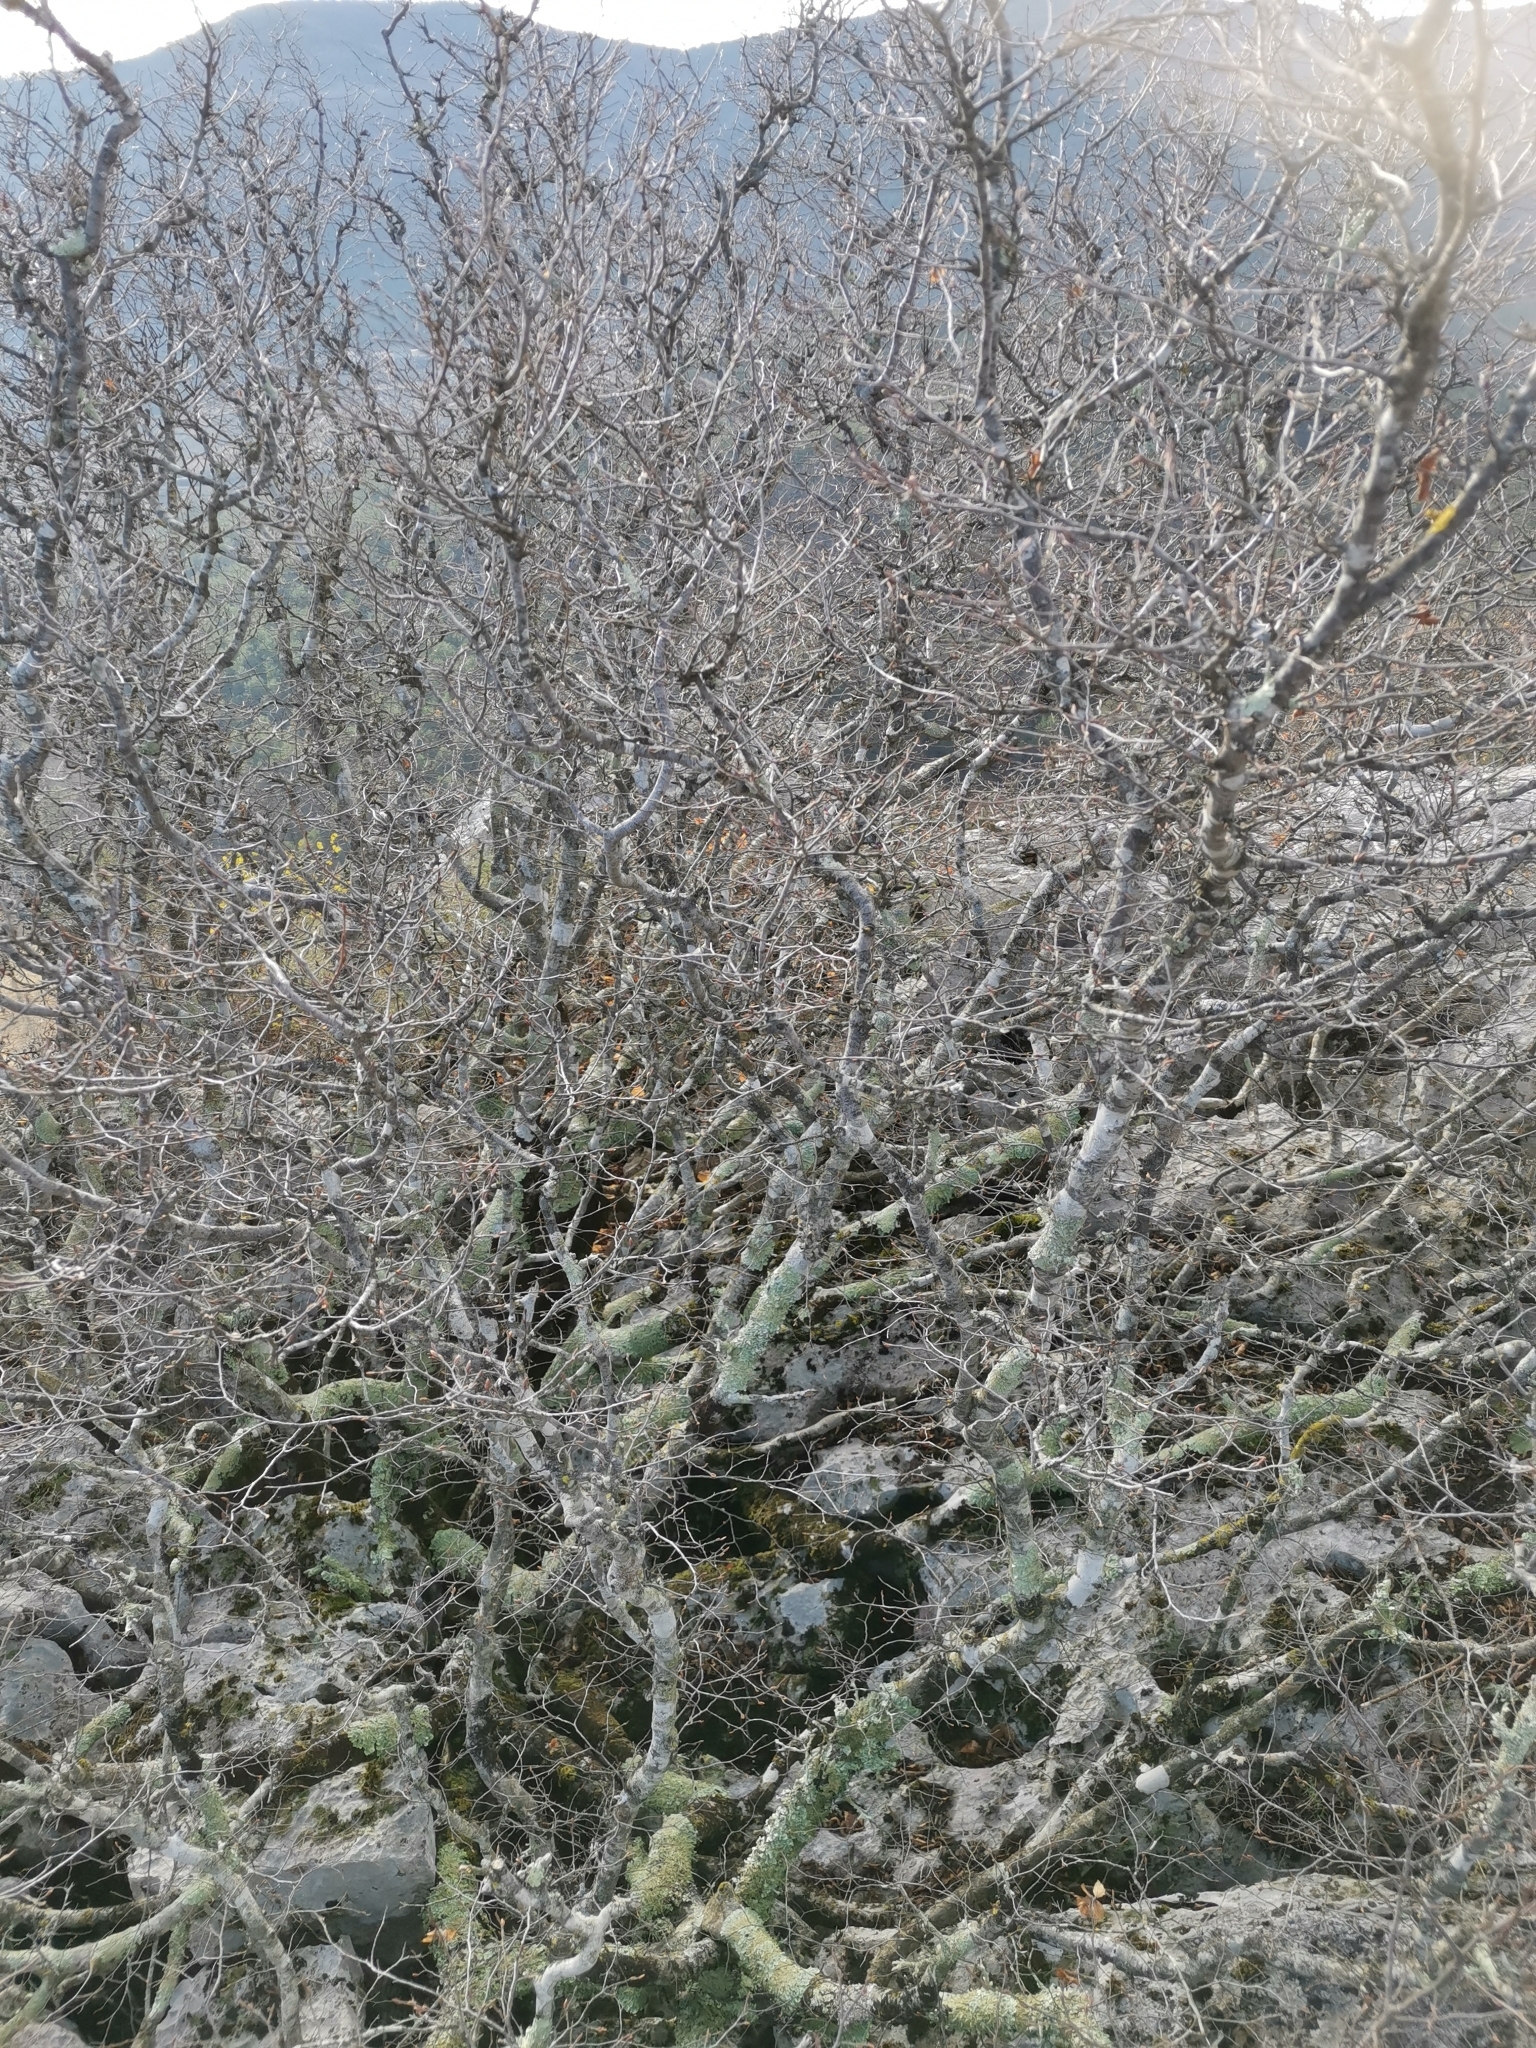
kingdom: Plantae
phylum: Tracheophyta
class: Magnoliopsida
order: Fagales
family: Betulaceae
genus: Carpinus
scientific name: Carpinus orientalis
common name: Eastern hornbeam
